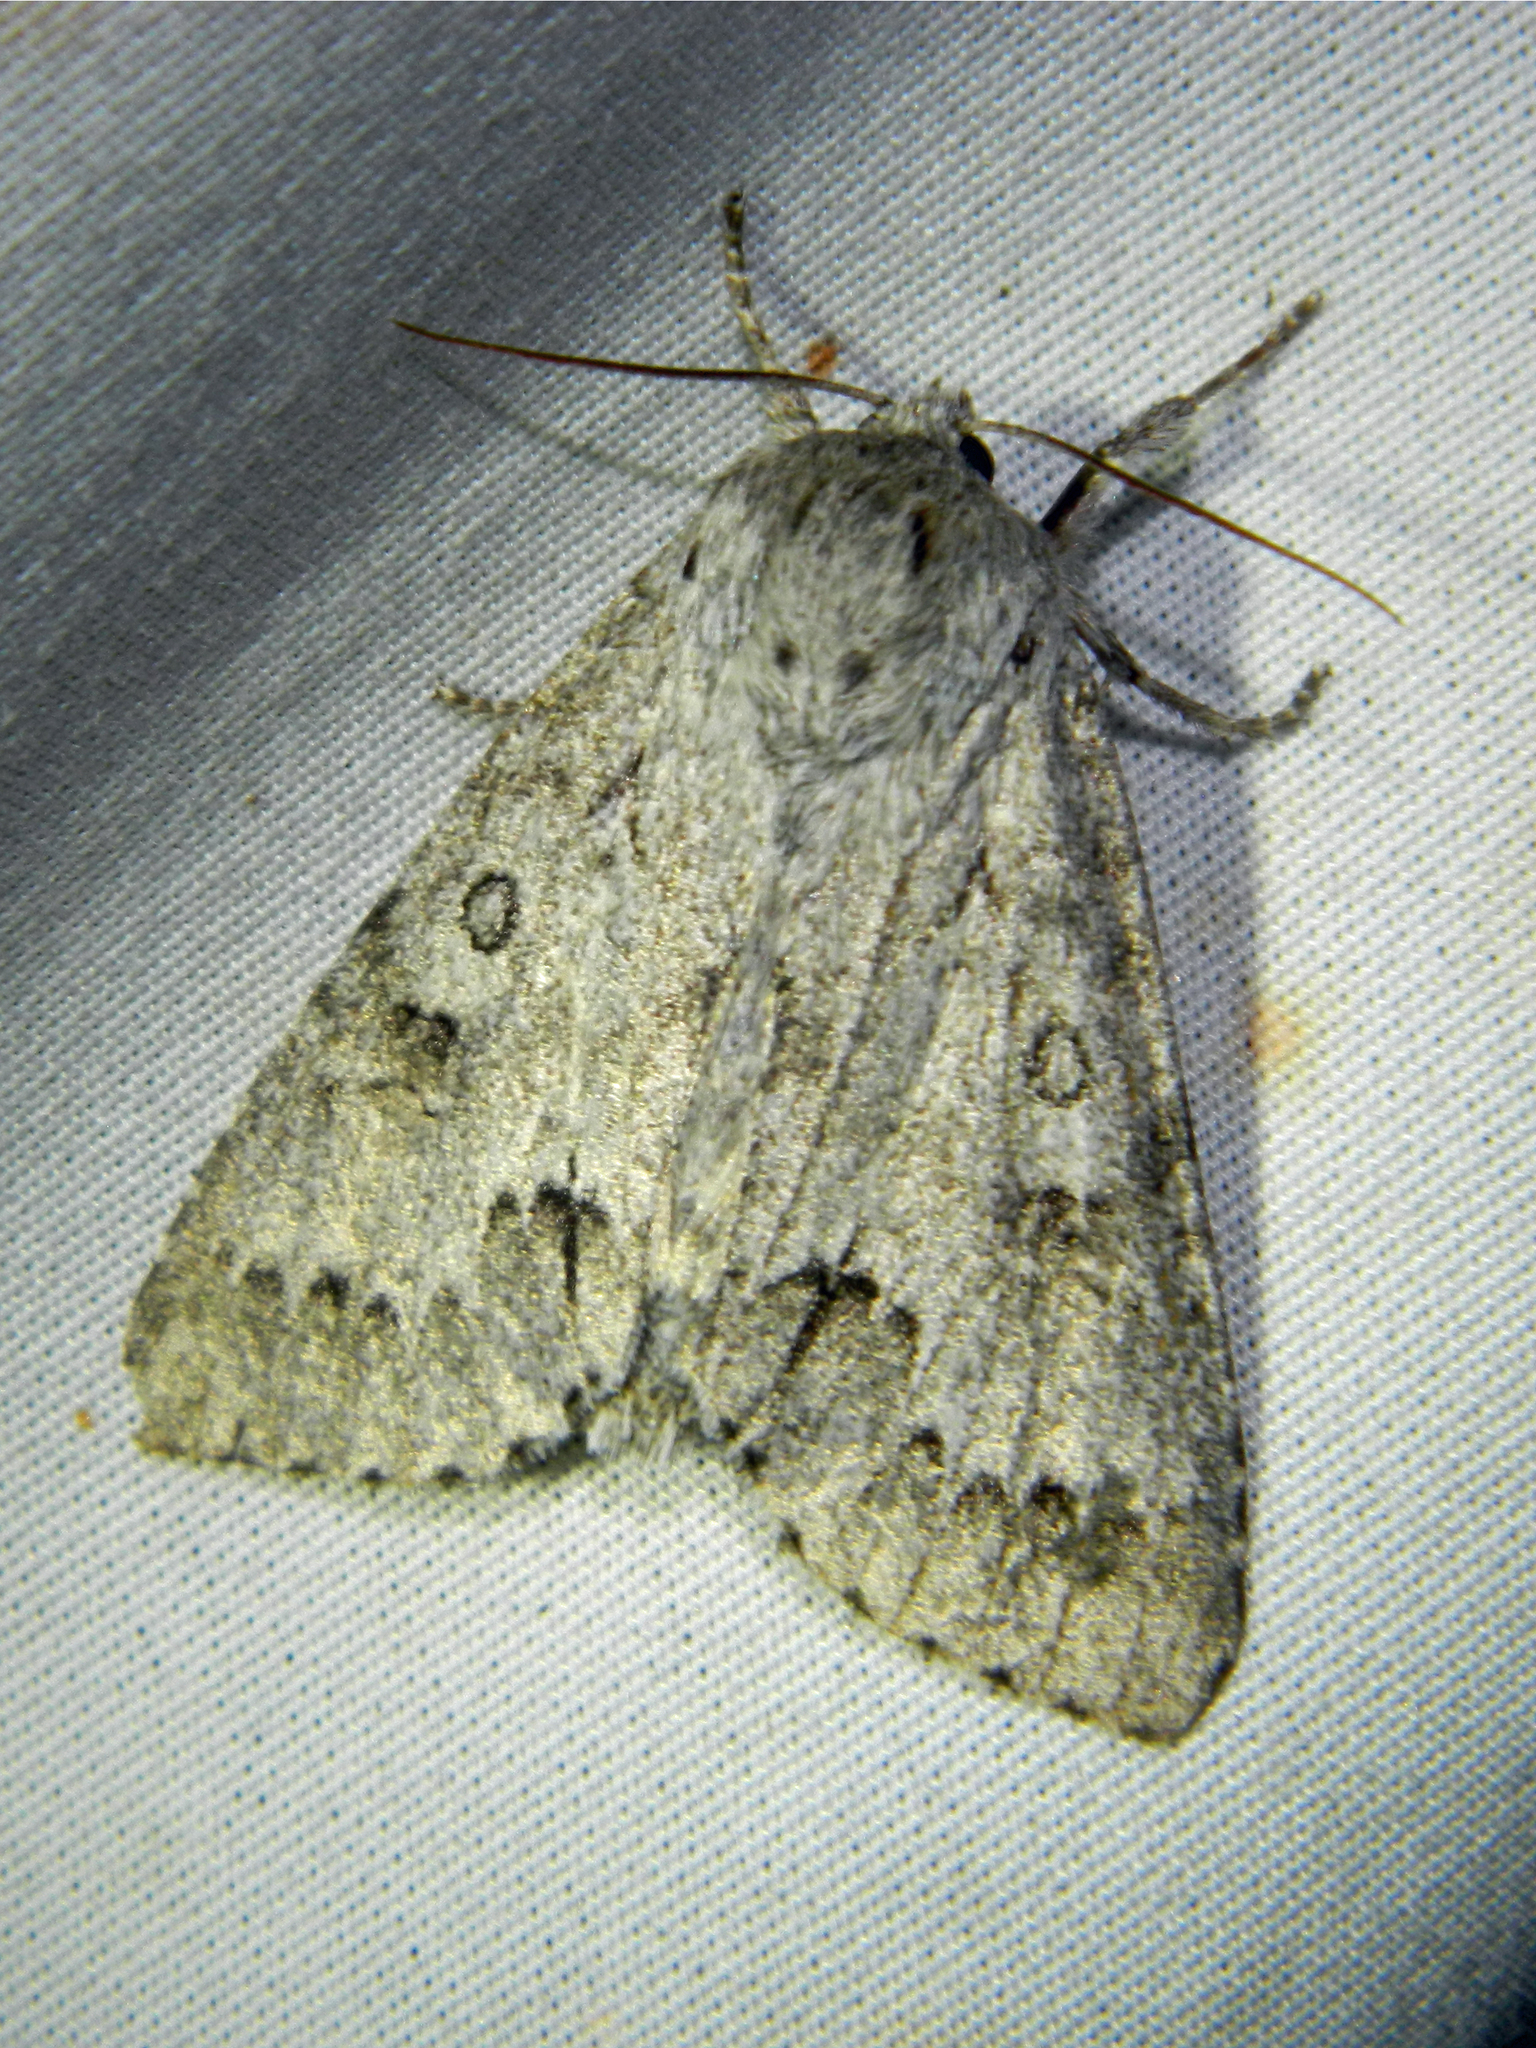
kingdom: Animalia
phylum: Arthropoda
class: Insecta
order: Lepidoptera
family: Noctuidae
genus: Acronicta
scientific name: Acronicta insita
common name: Large gray dagger
